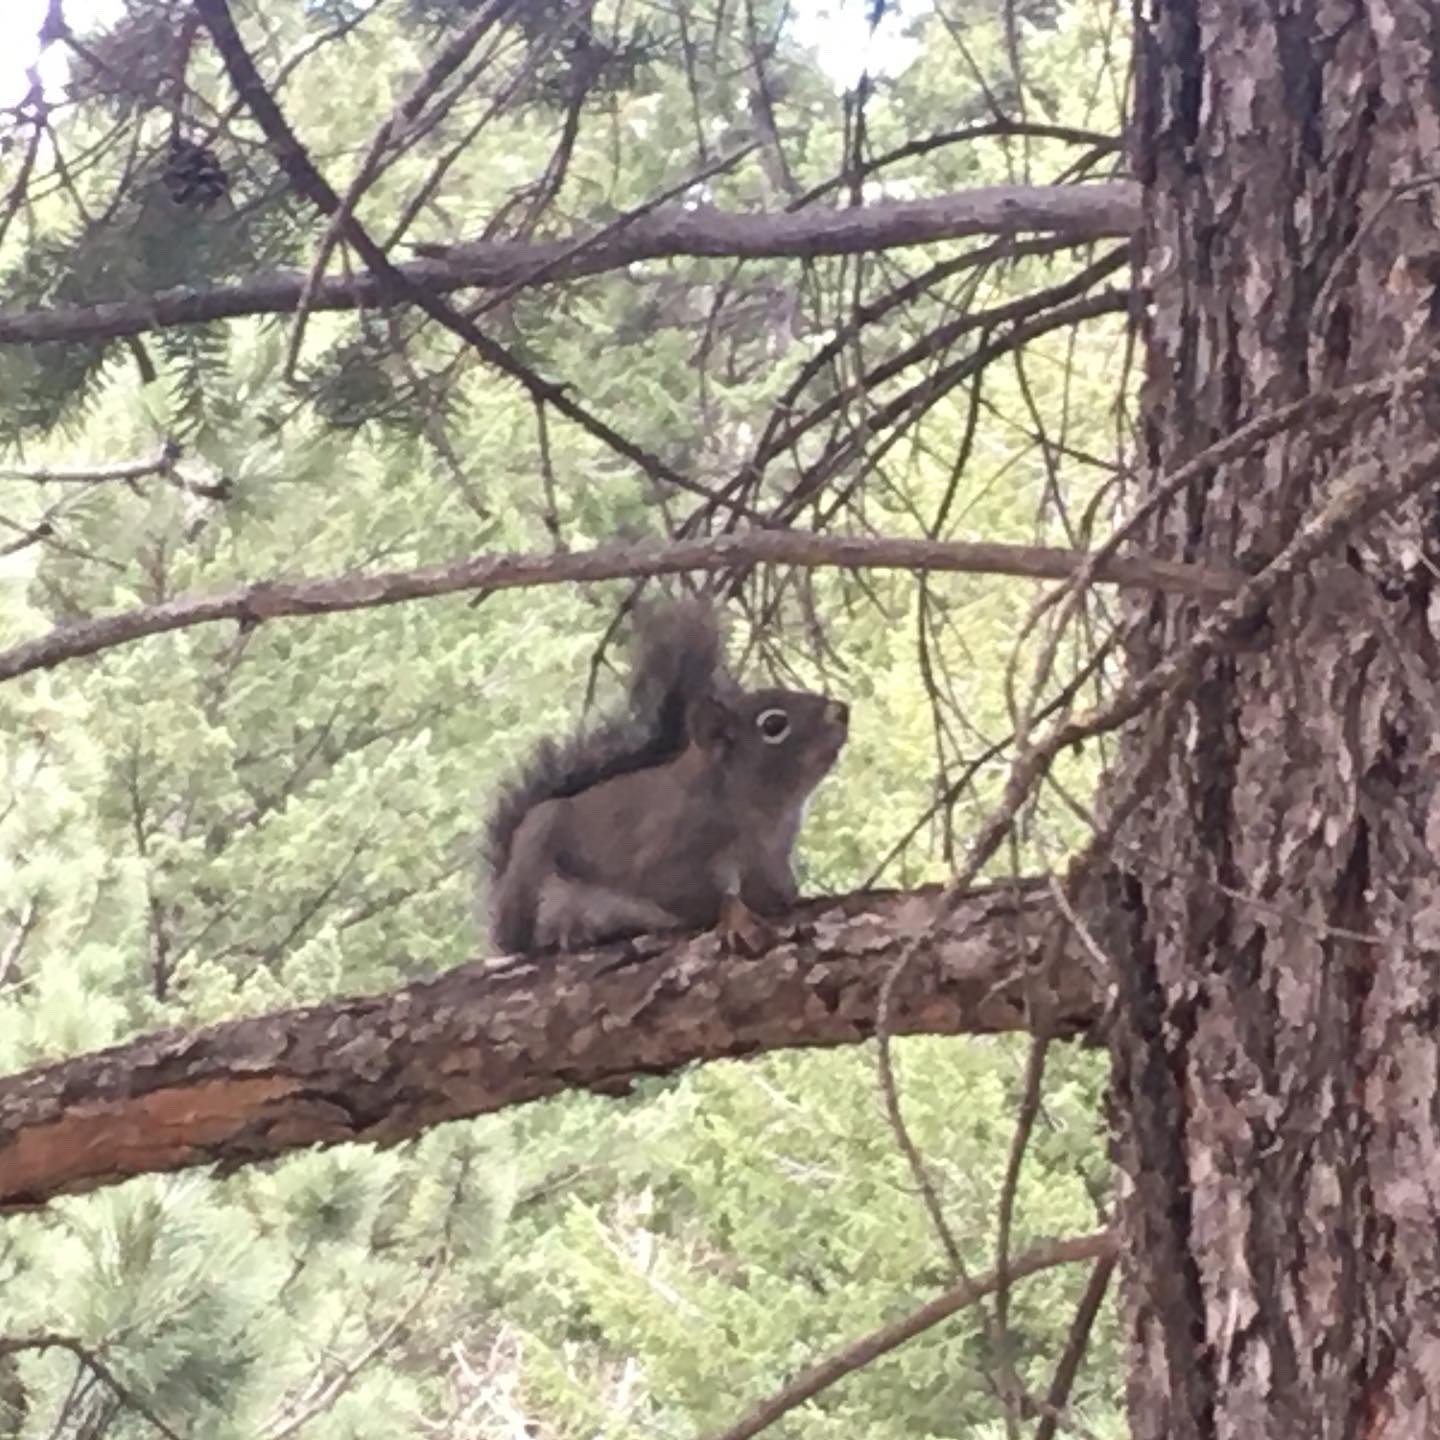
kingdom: Animalia
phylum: Chordata
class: Mammalia
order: Rodentia
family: Sciuridae
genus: Tamiasciurus
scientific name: Tamiasciurus hudsonicus
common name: Red squirrel
